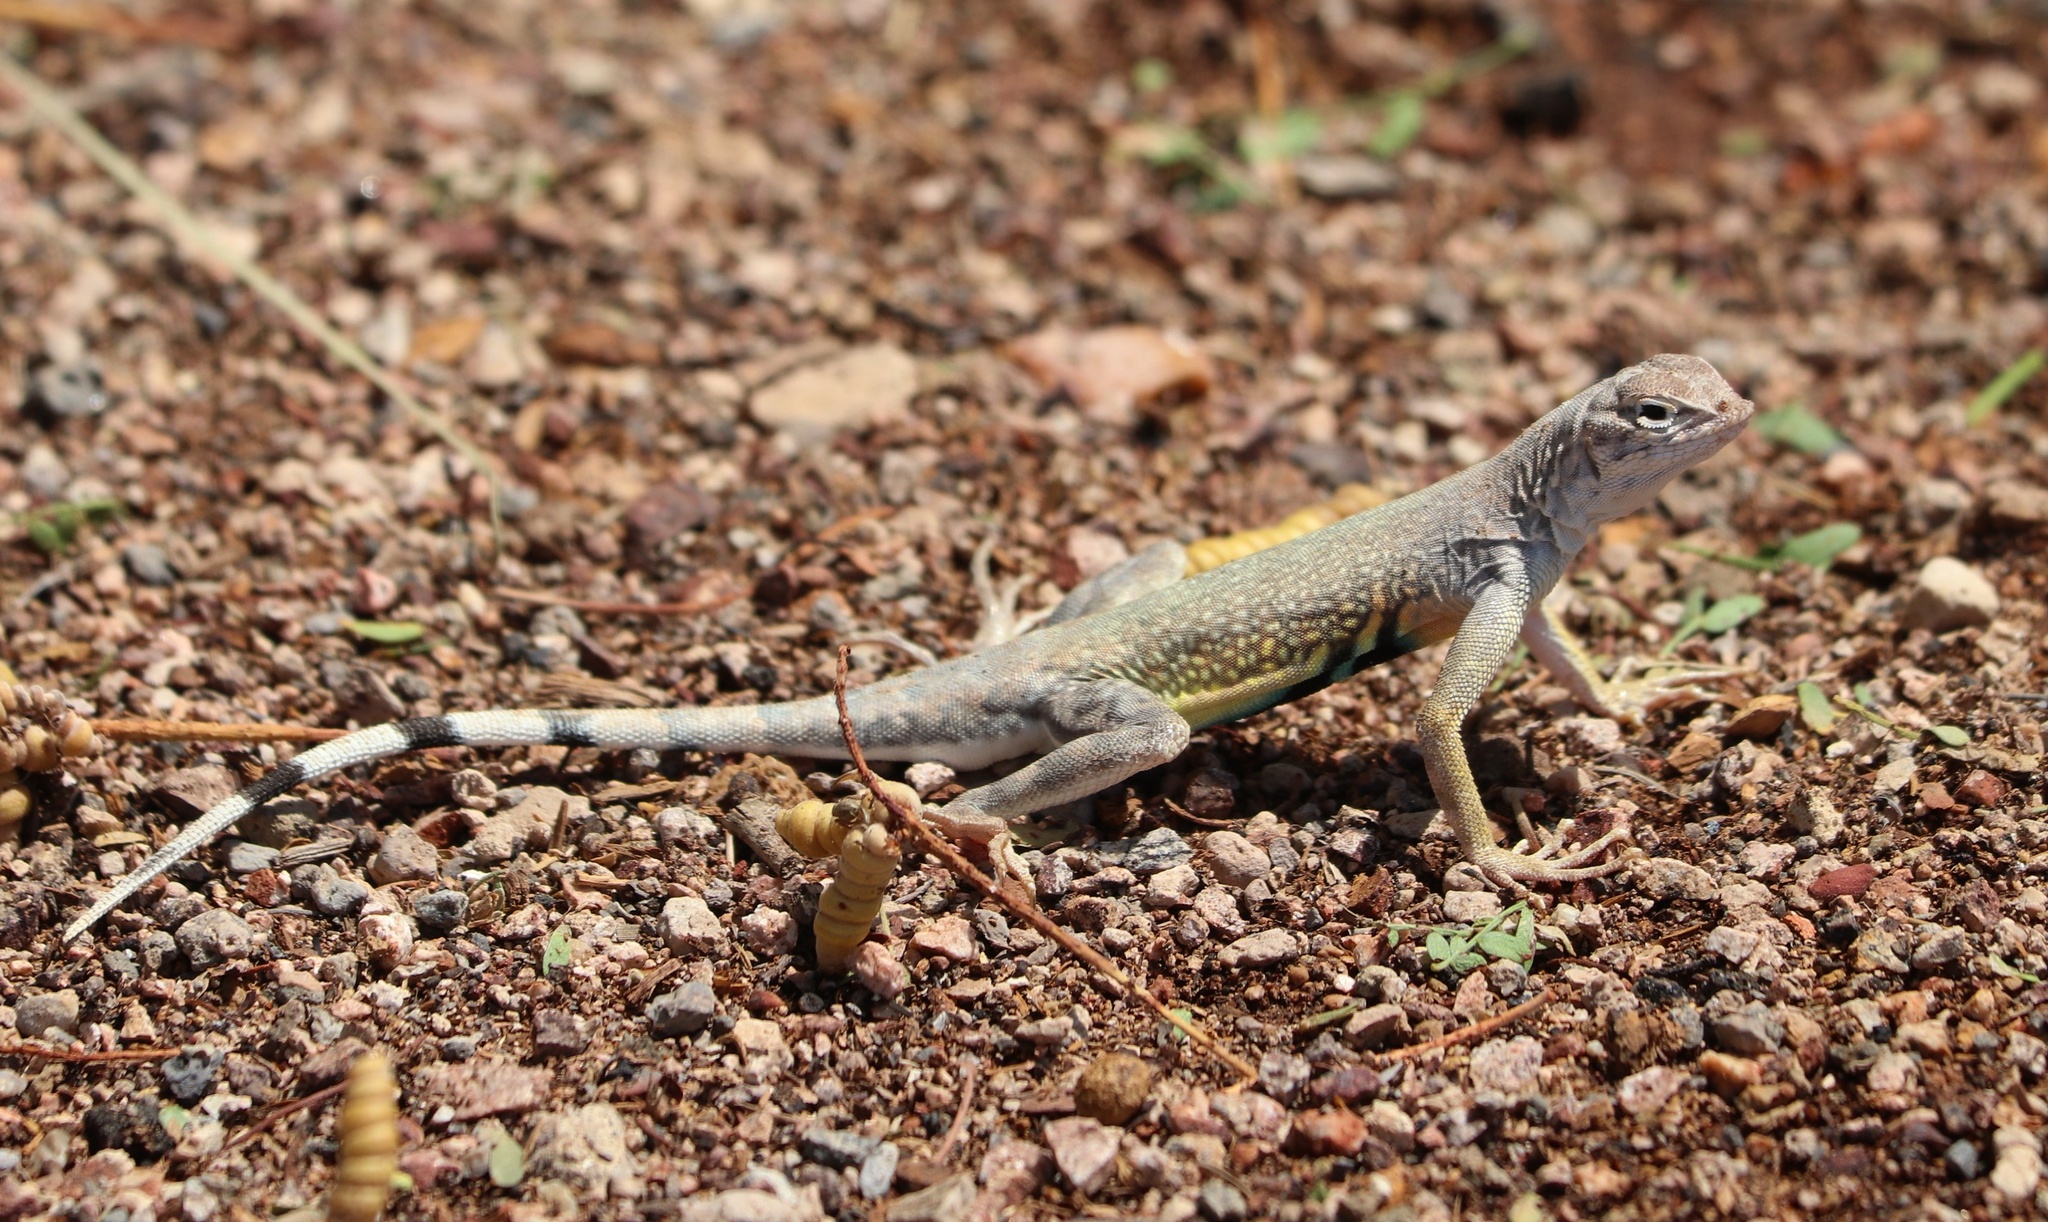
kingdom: Animalia
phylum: Chordata
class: Squamata
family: Phrynosomatidae
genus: Callisaurus
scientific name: Callisaurus draconoides
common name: Zebra-tailed lizard
